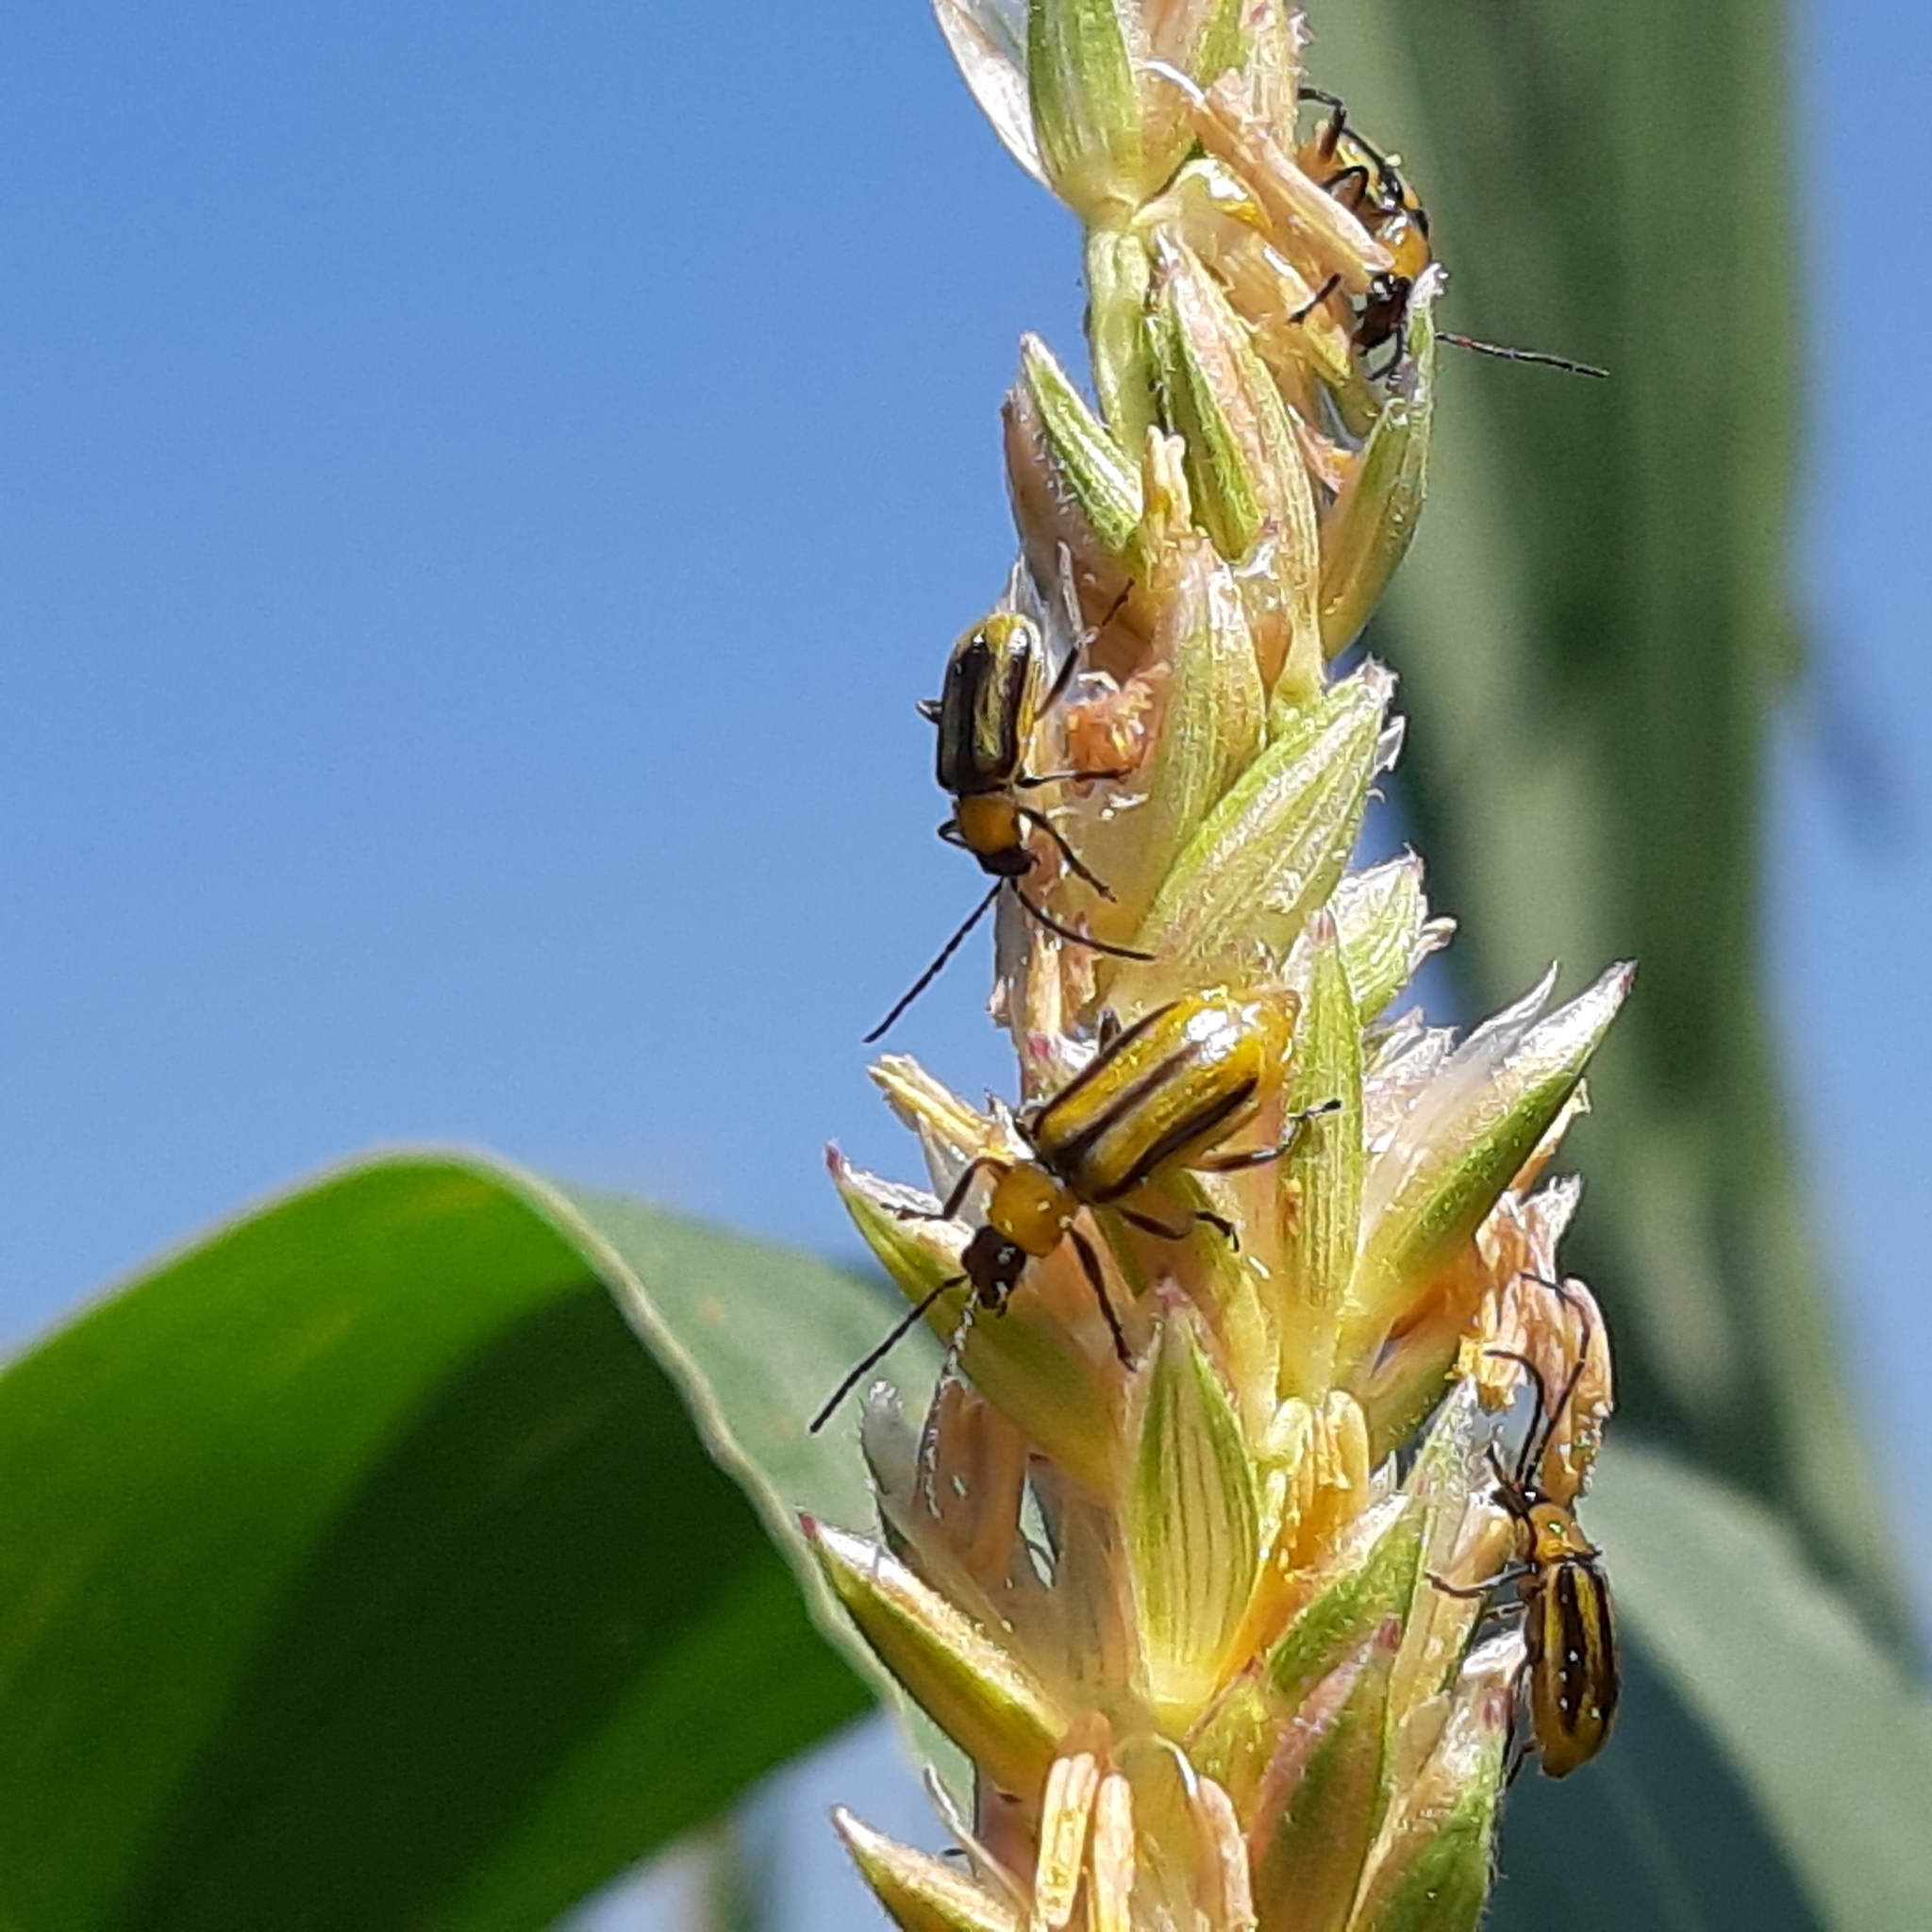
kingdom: Animalia
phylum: Arthropoda
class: Insecta
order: Coleoptera
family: Chrysomelidae
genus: Diabrotica
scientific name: Diabrotica virgifera
